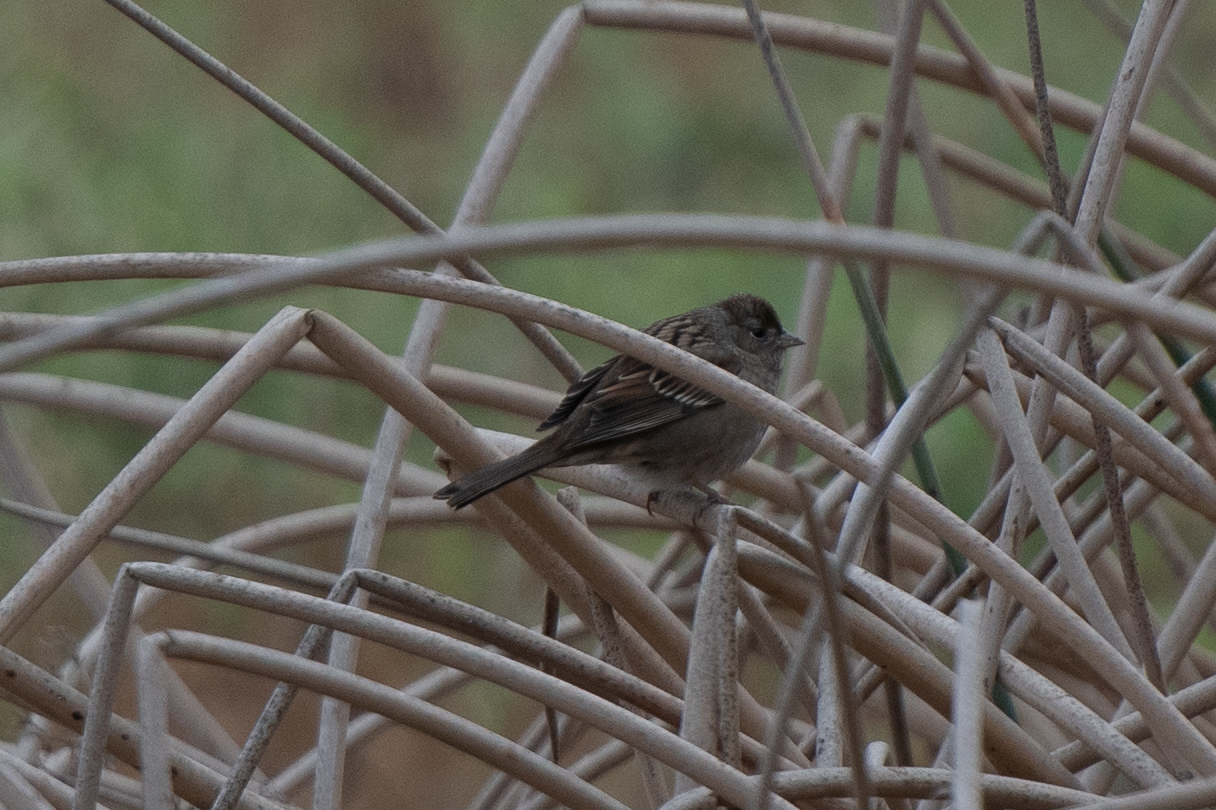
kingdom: Animalia
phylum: Chordata
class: Aves
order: Passeriformes
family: Passerellidae
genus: Zonotrichia
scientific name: Zonotrichia atricapilla
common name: Golden-crowned sparrow
